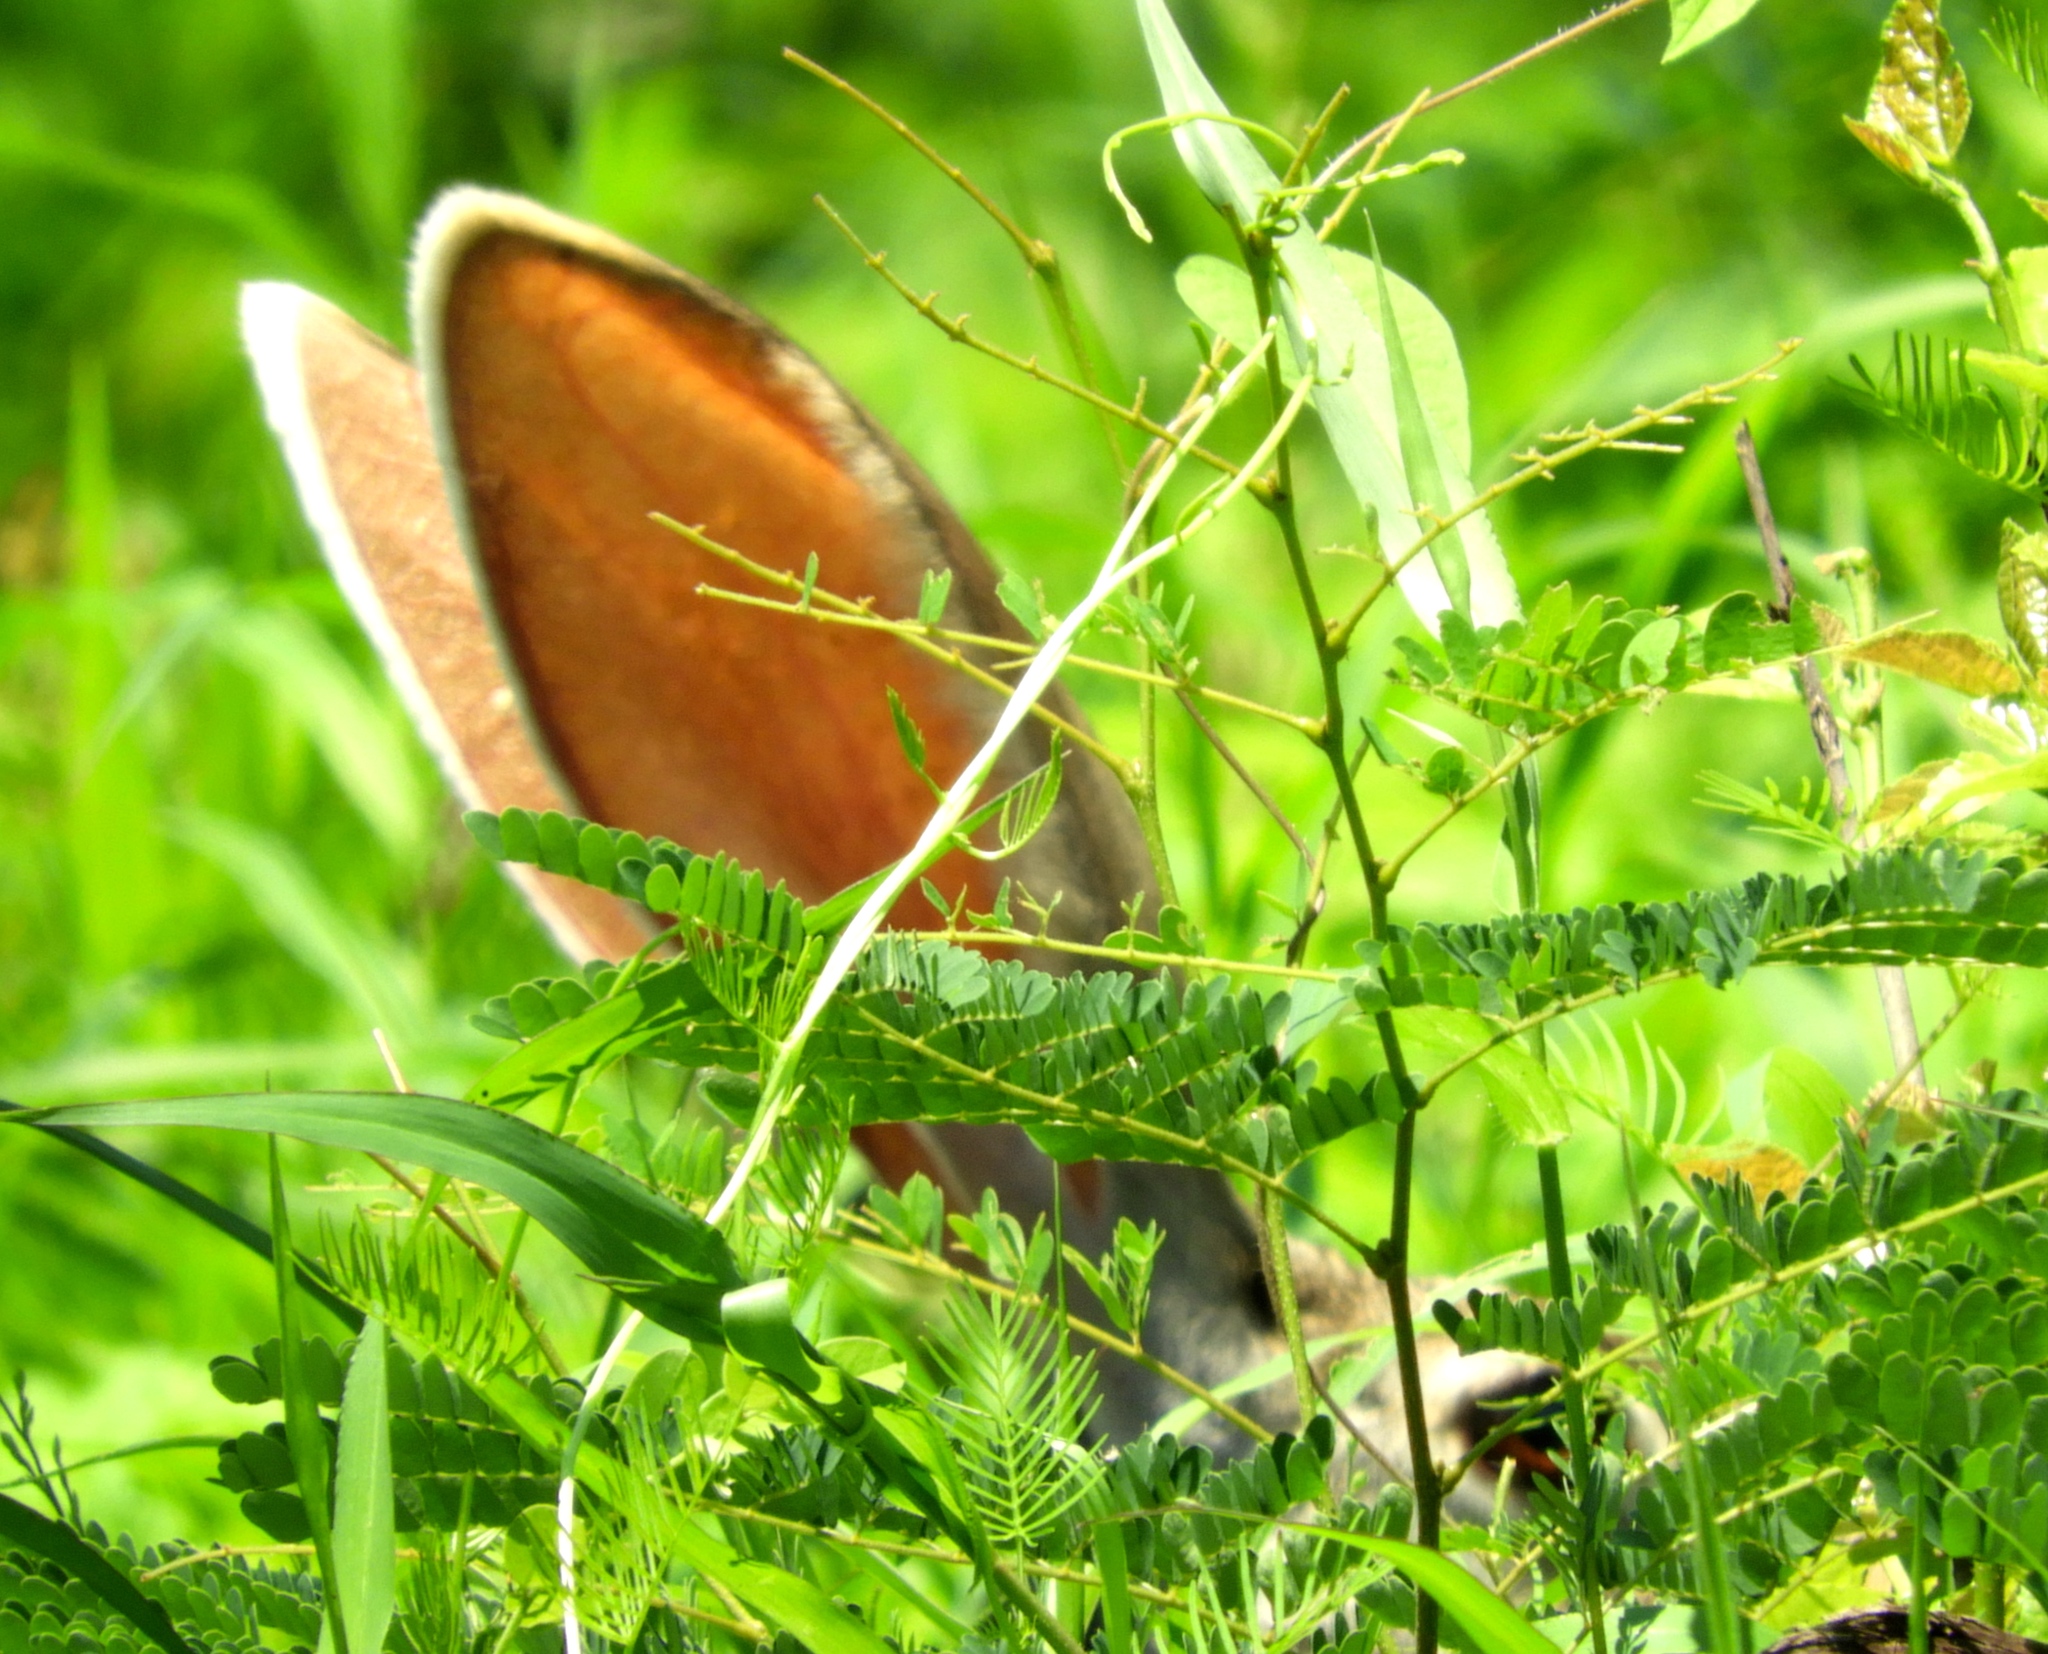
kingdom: Animalia
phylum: Chordata
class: Mammalia
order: Lagomorpha
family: Leporidae
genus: Lepus
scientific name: Lepus alleni
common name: Antelope jackrabbit
